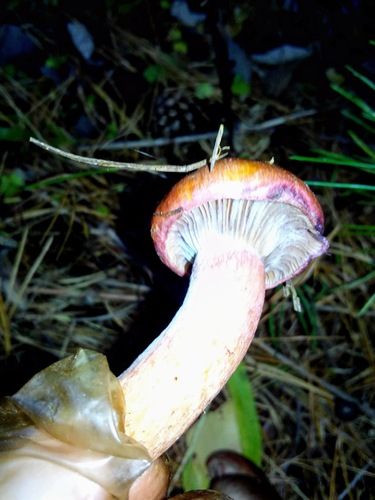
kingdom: Fungi
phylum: Basidiomycota
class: Agaricomycetes
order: Boletales
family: Gomphidiaceae
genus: Chroogomphus
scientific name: Chroogomphus rutilus
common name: Copper spike
